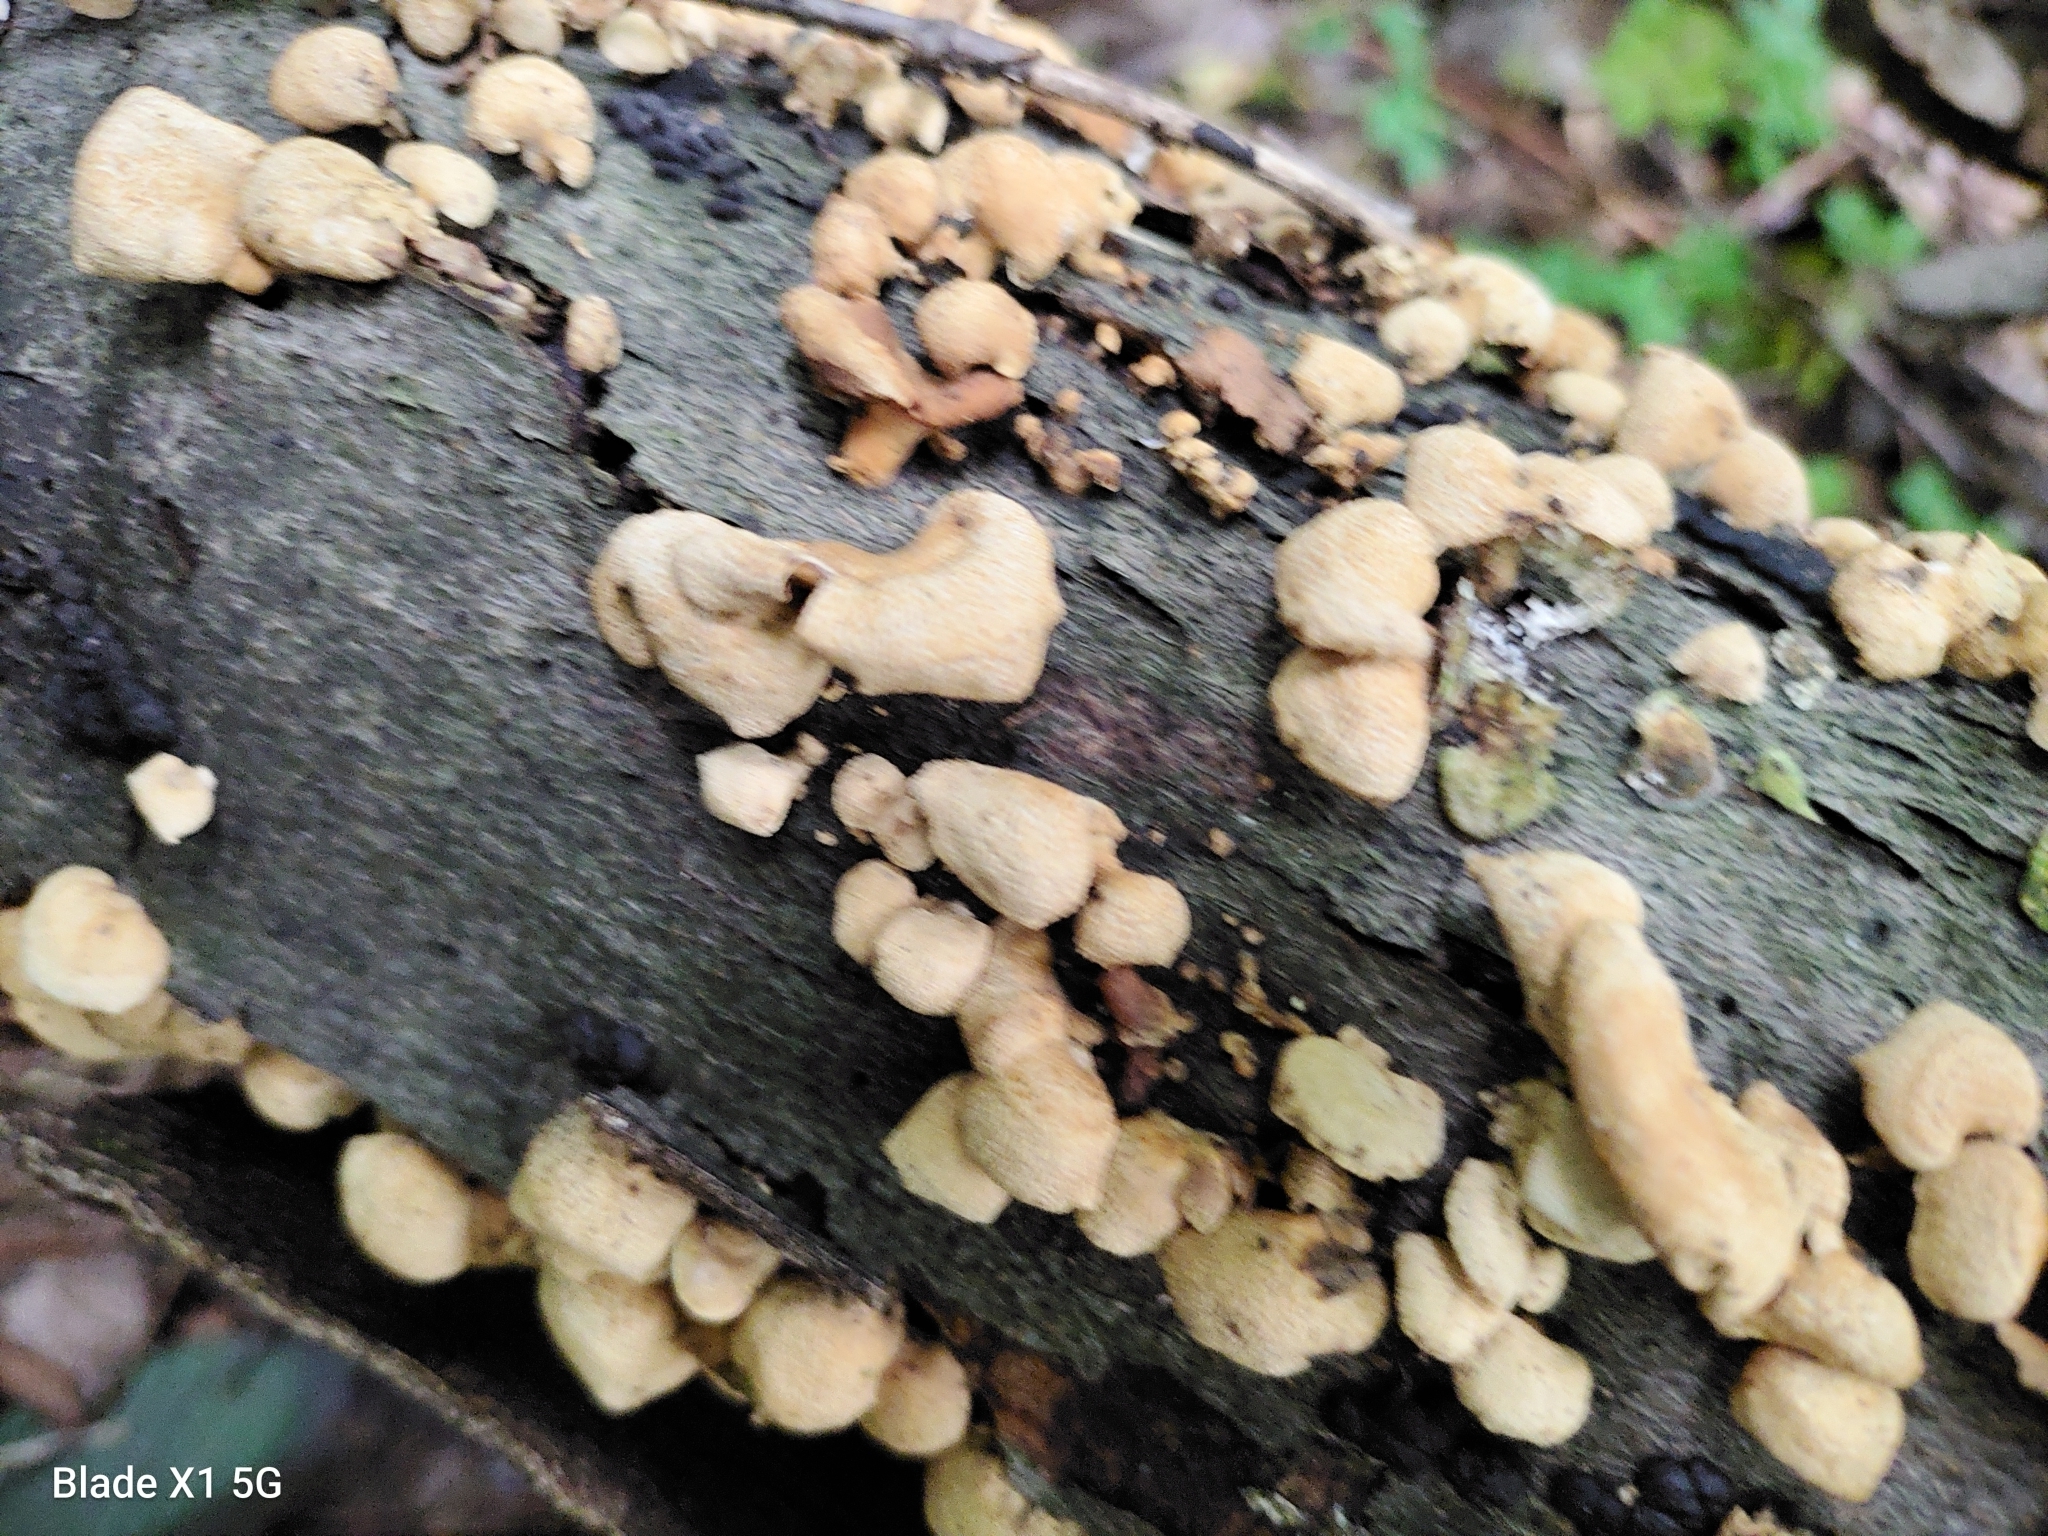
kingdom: Fungi
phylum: Basidiomycota
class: Agaricomycetes
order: Agaricales
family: Mycenaceae
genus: Panellus
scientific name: Panellus stipticus
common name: Bitter oysterling
